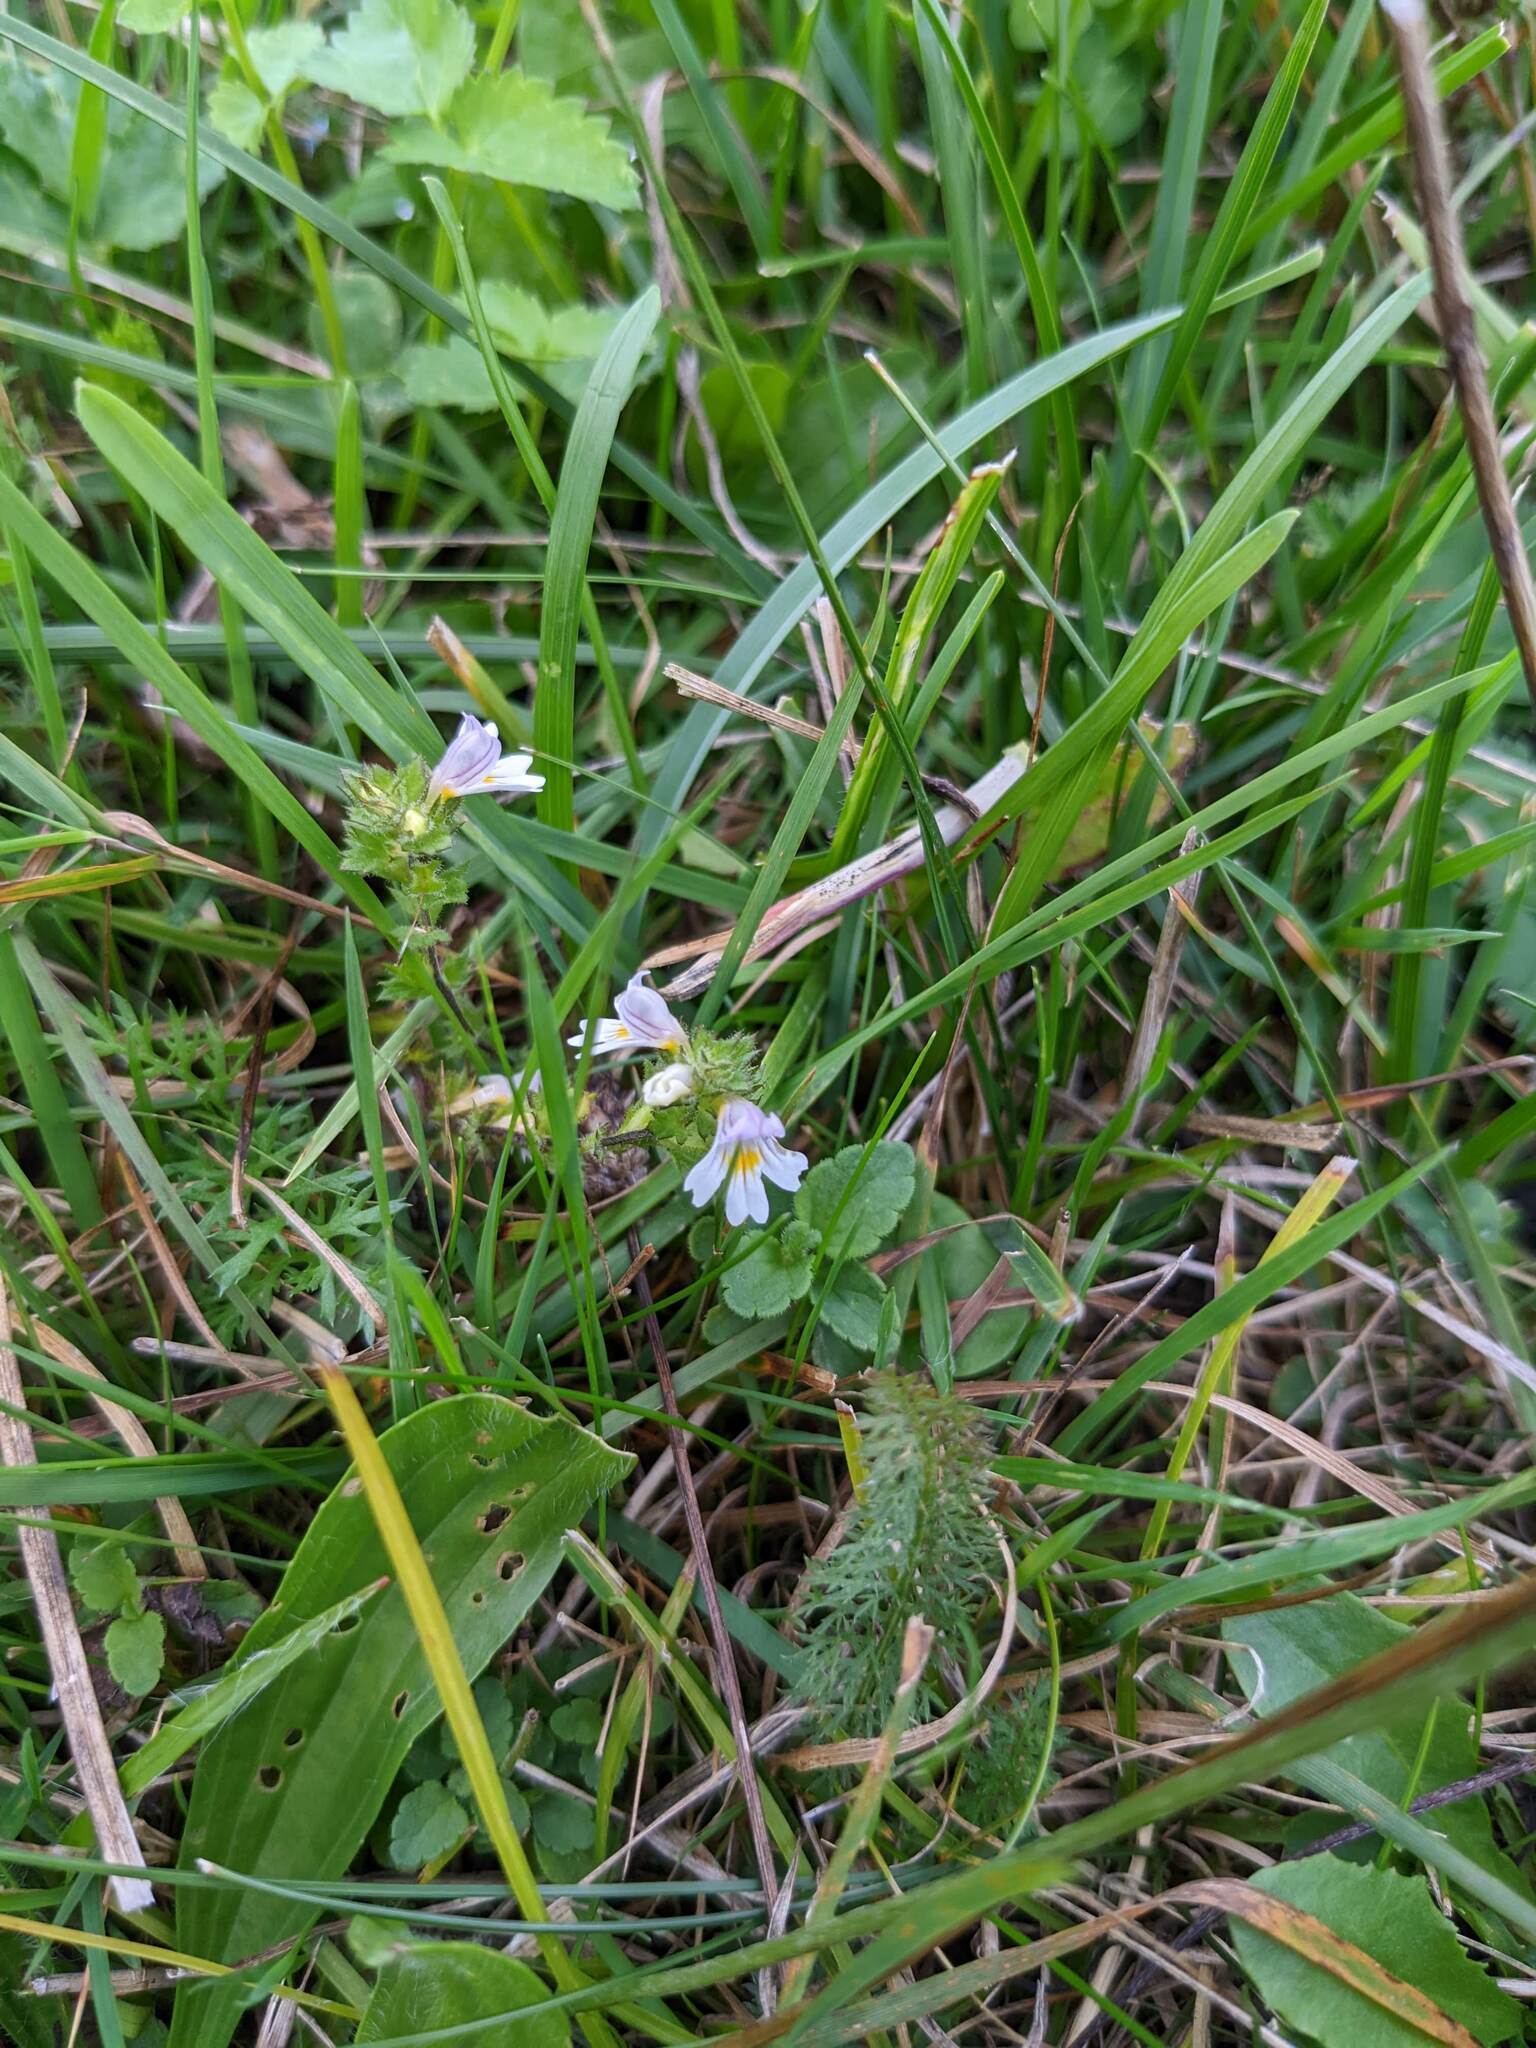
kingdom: Plantae
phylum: Tracheophyta
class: Magnoliopsida
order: Lamiales
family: Orobanchaceae
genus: Euphrasia
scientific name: Euphrasia officinalis
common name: Eyebright
